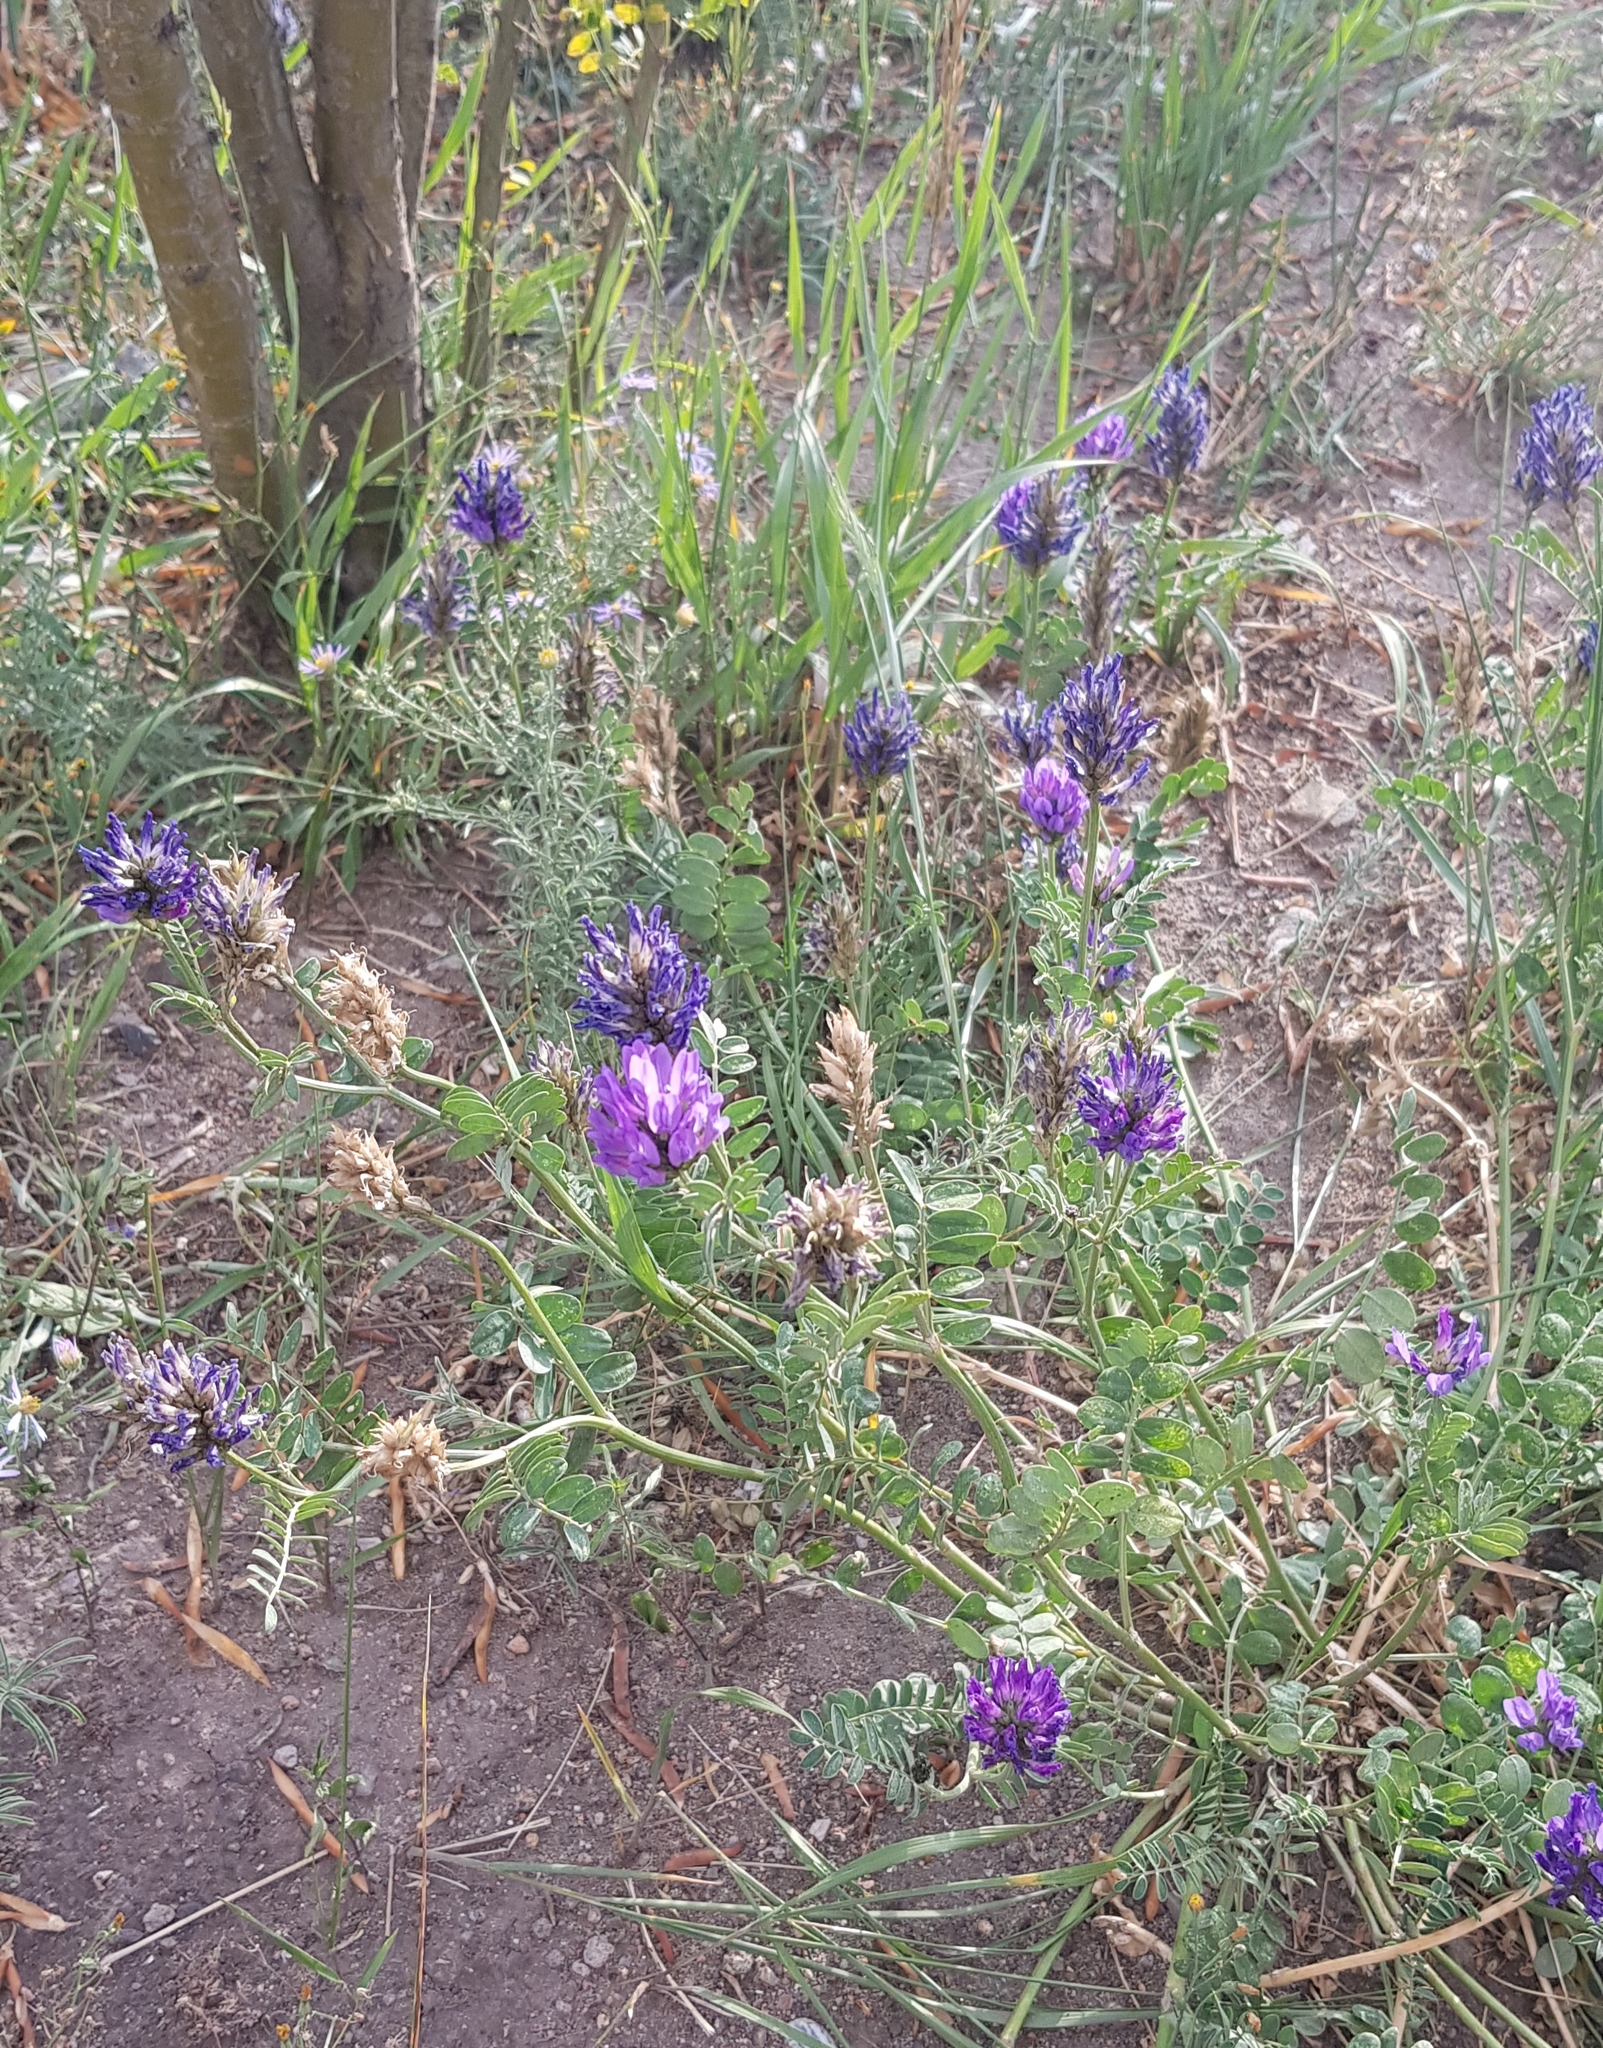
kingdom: Plantae
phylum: Tracheophyta
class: Magnoliopsida
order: Fabales
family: Fabaceae
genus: Astragalus
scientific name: Astragalus laxmannii
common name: Laxmann's milk-vetch
